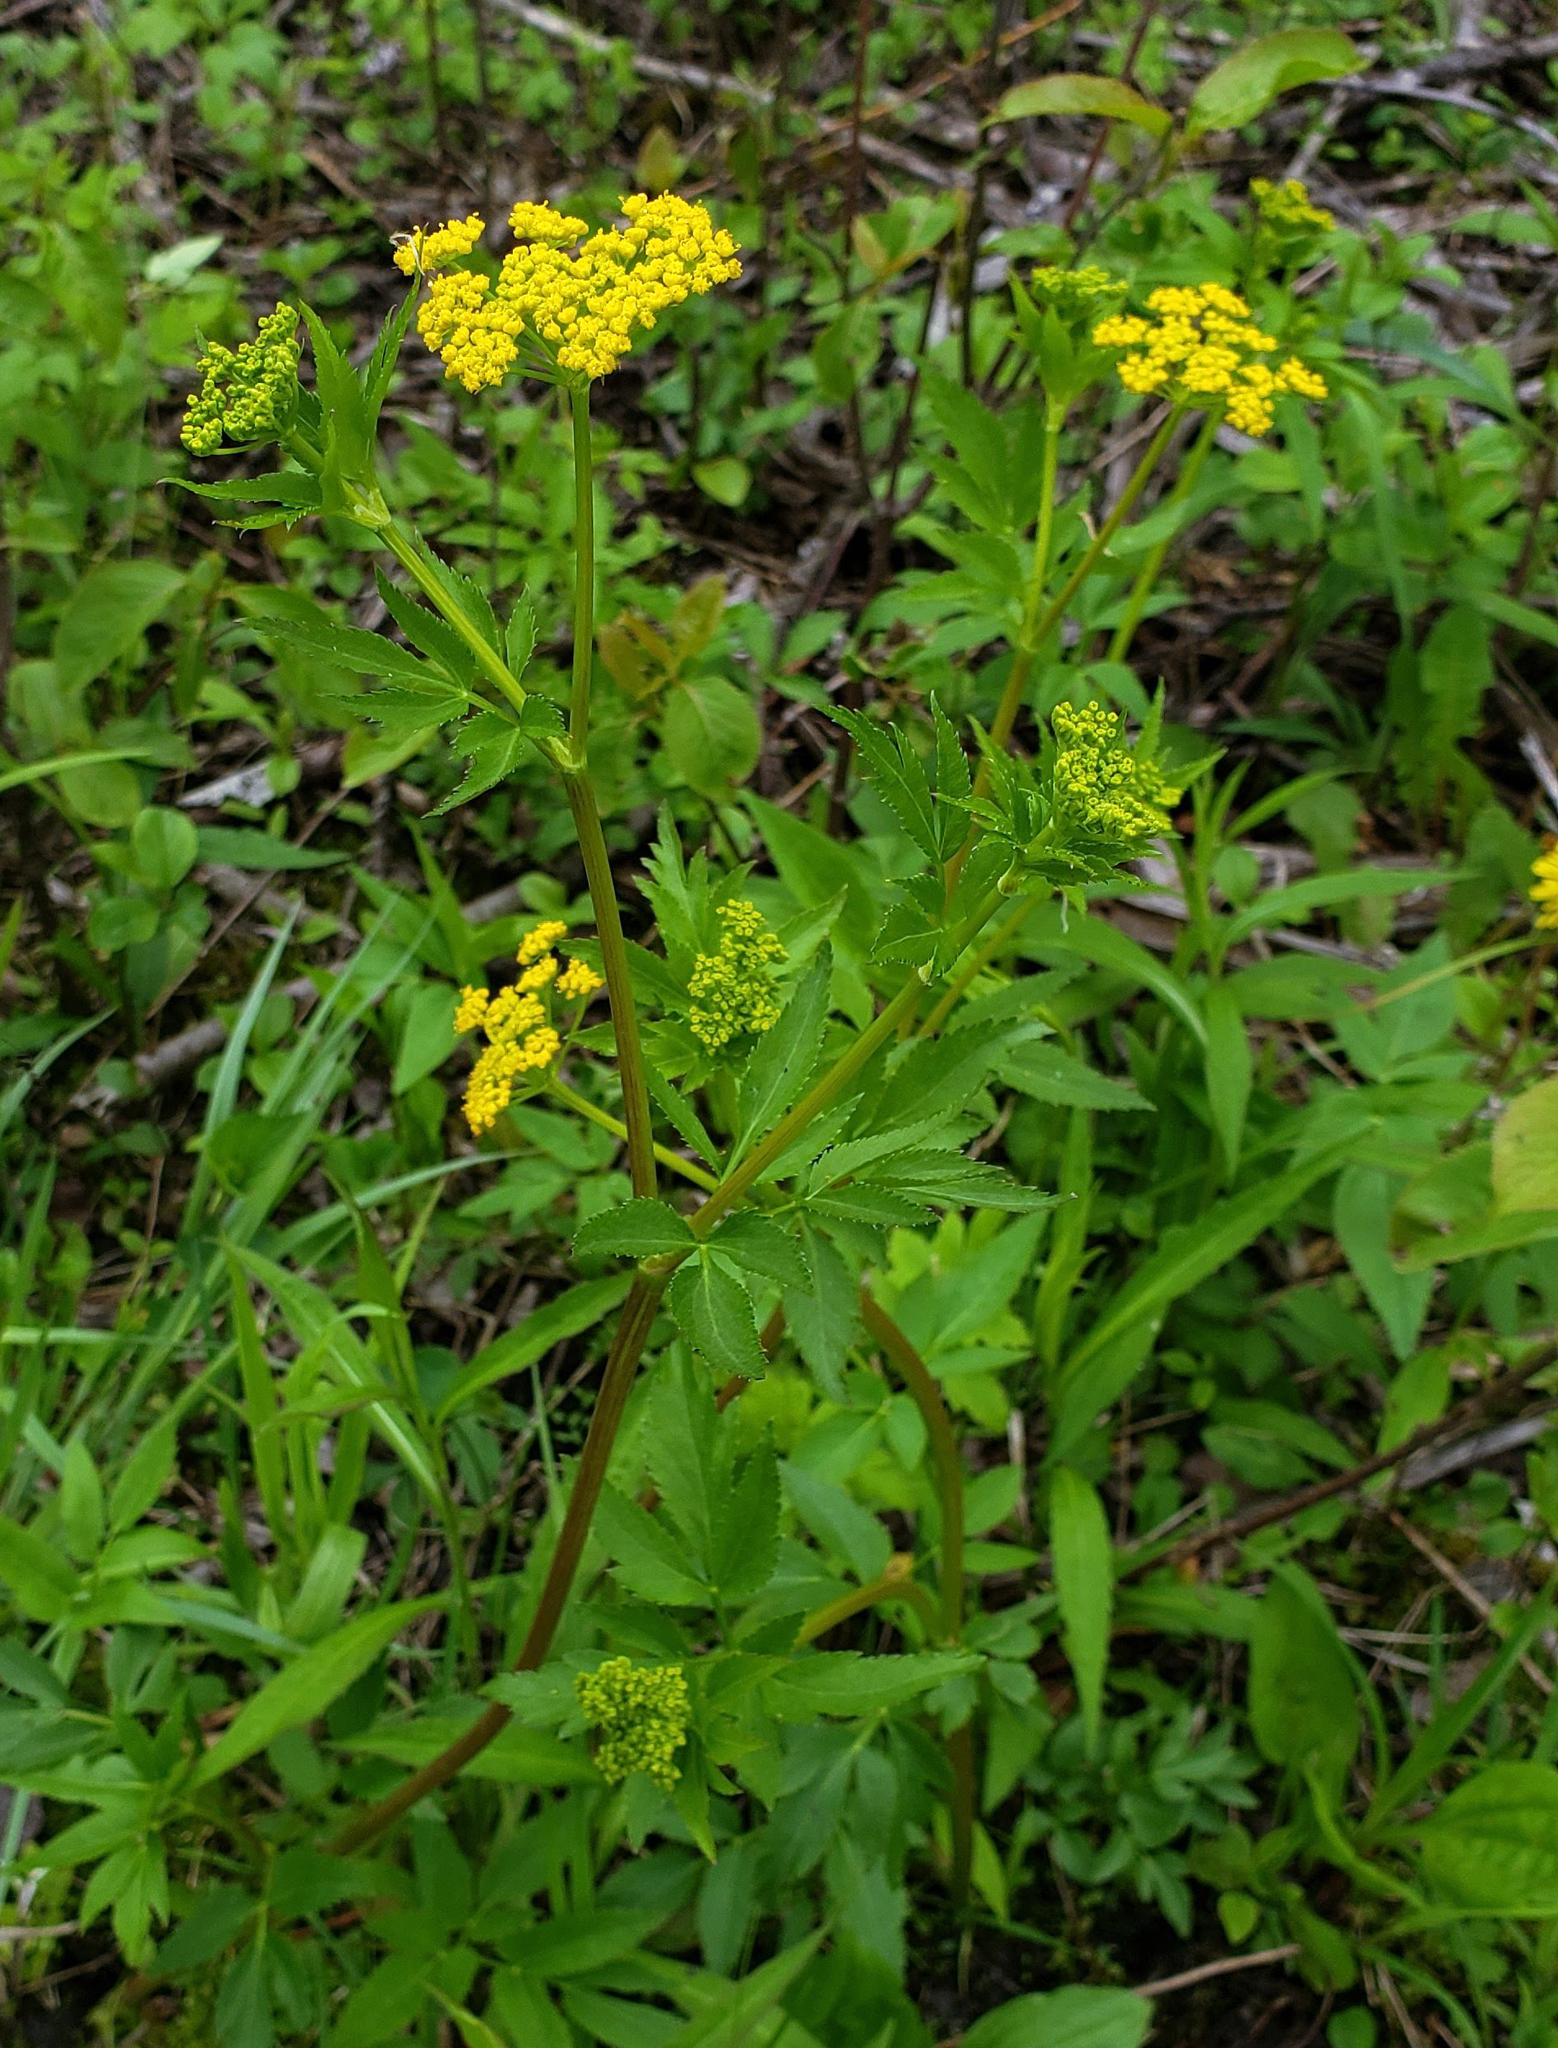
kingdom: Plantae
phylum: Tracheophyta
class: Magnoliopsida
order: Apiales
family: Apiaceae
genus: Zizia
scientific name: Zizia aurea
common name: Golden alexanders
